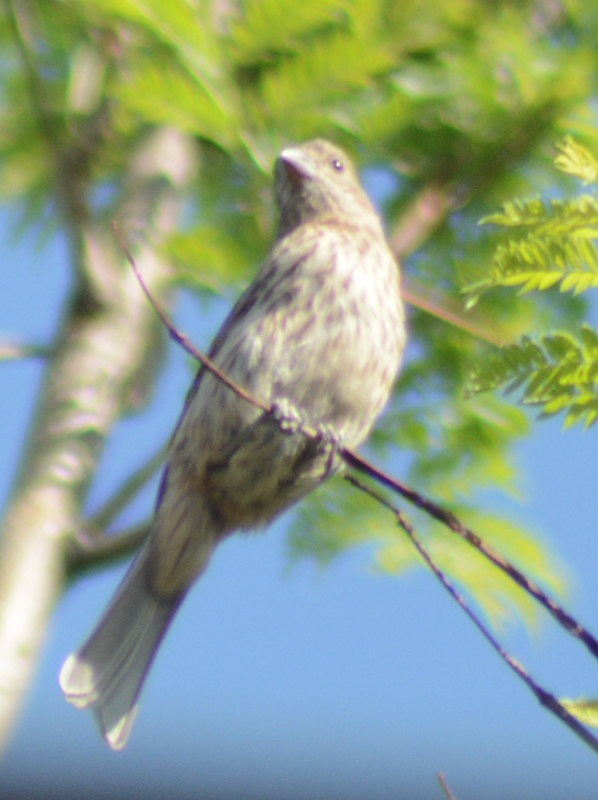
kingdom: Animalia
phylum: Chordata
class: Aves
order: Passeriformes
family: Fringillidae
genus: Haemorhous
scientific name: Haemorhous mexicanus
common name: House finch
